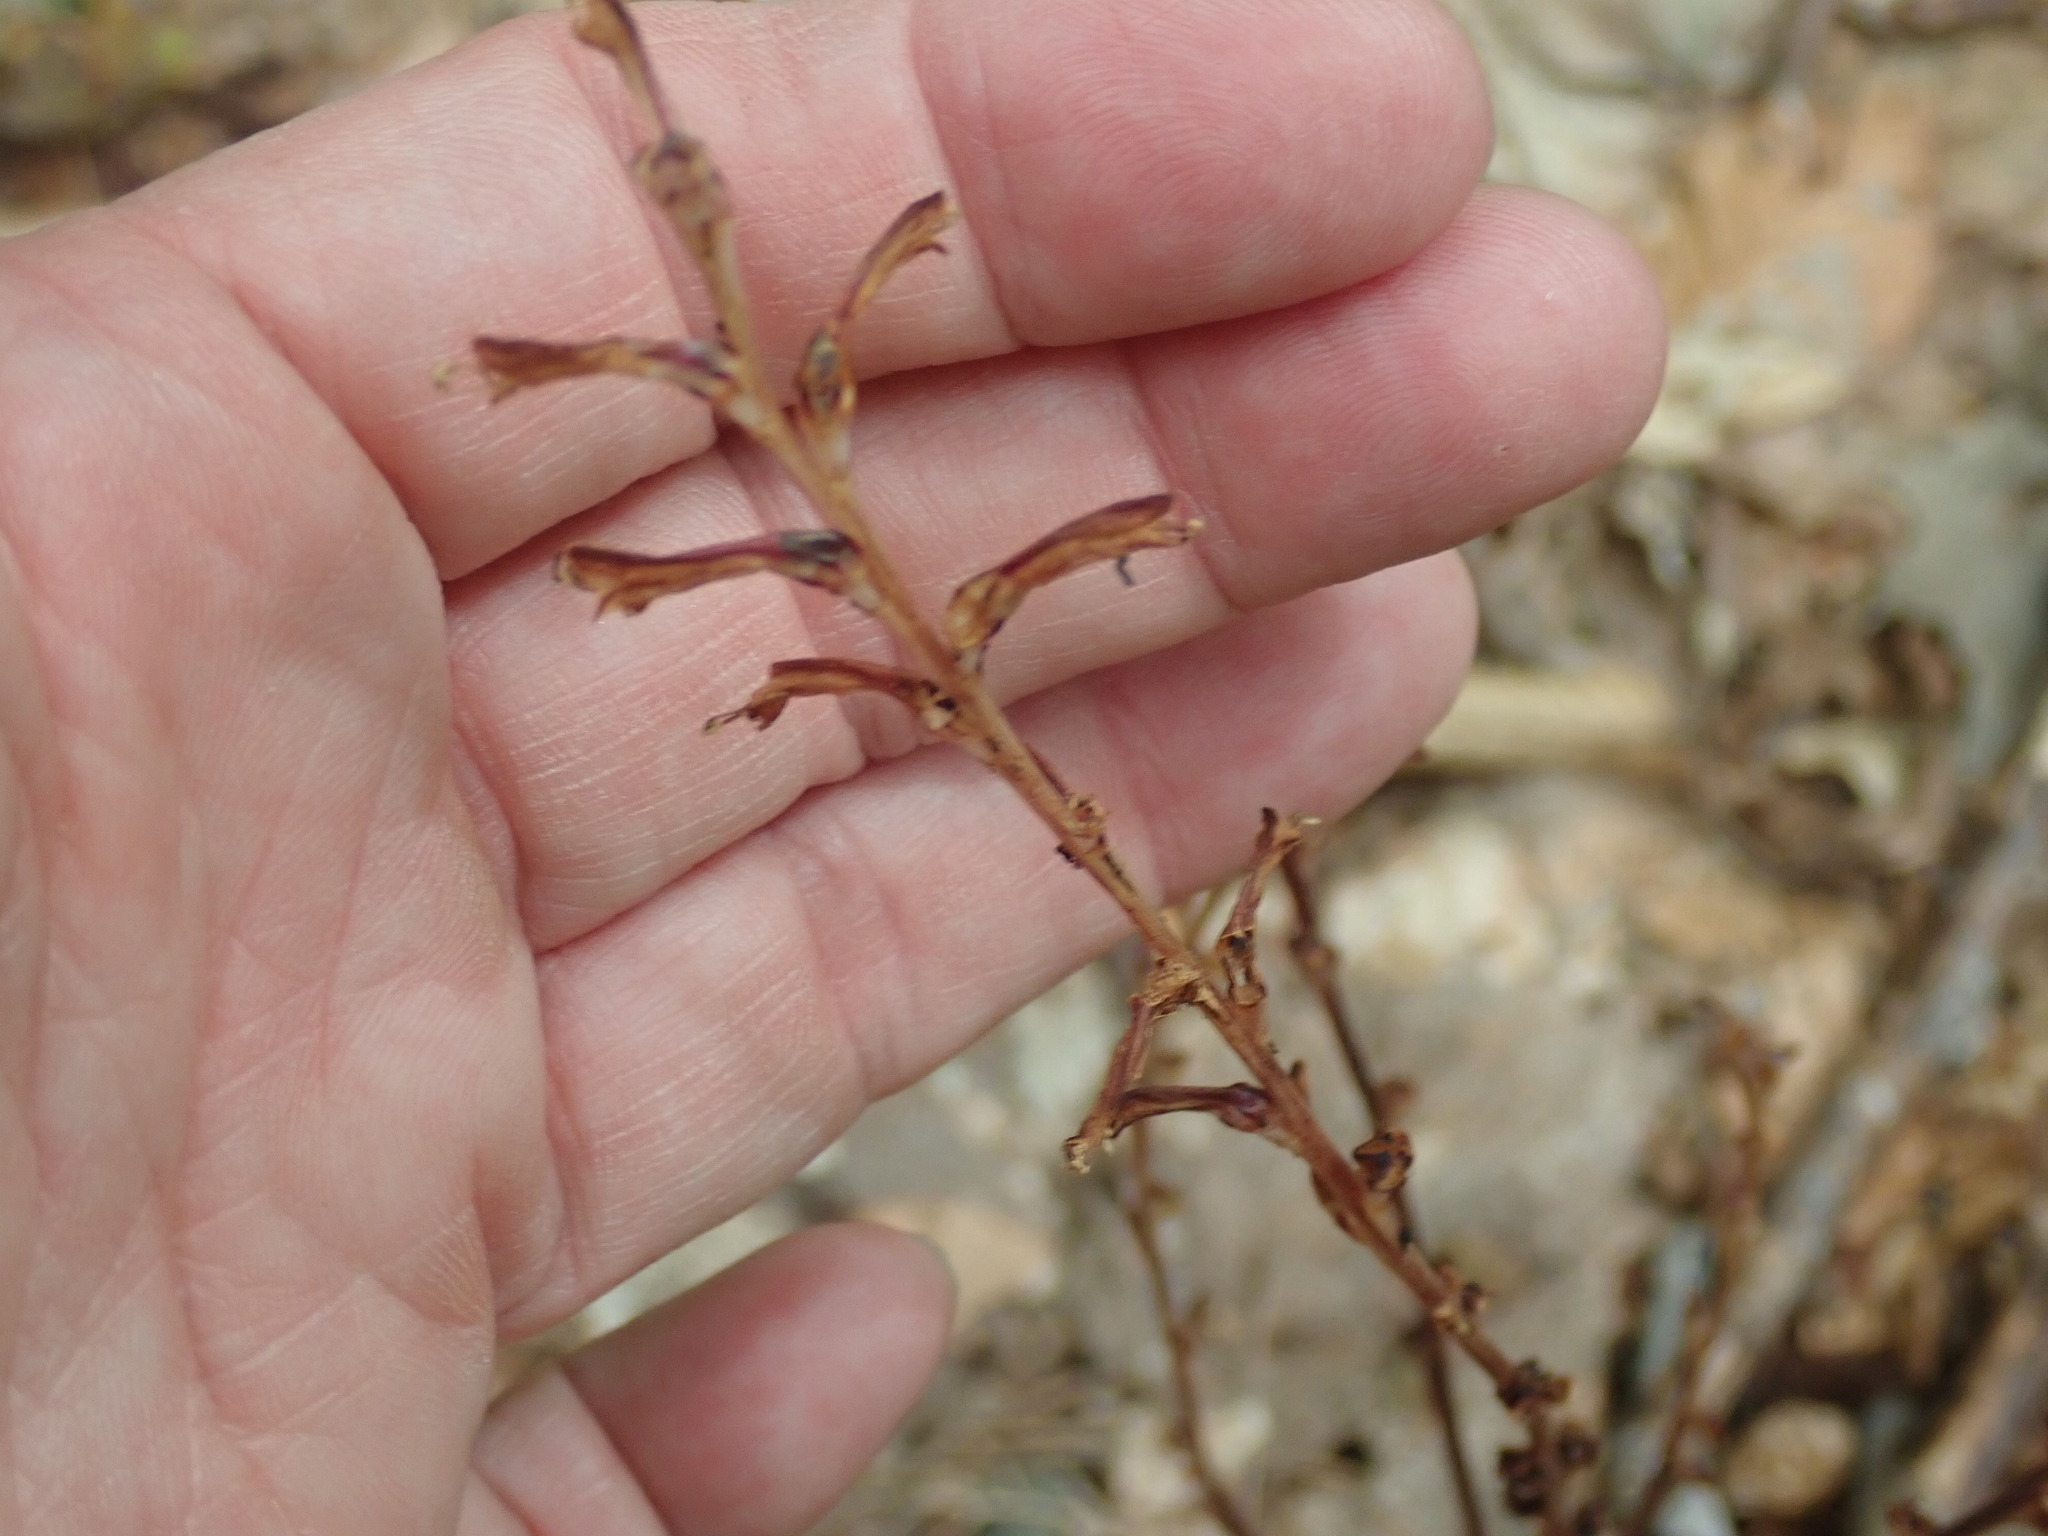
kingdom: Plantae
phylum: Tracheophyta
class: Magnoliopsida
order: Lamiales
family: Orobanchaceae
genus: Epifagus
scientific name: Epifagus virginiana
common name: Beechdrops
